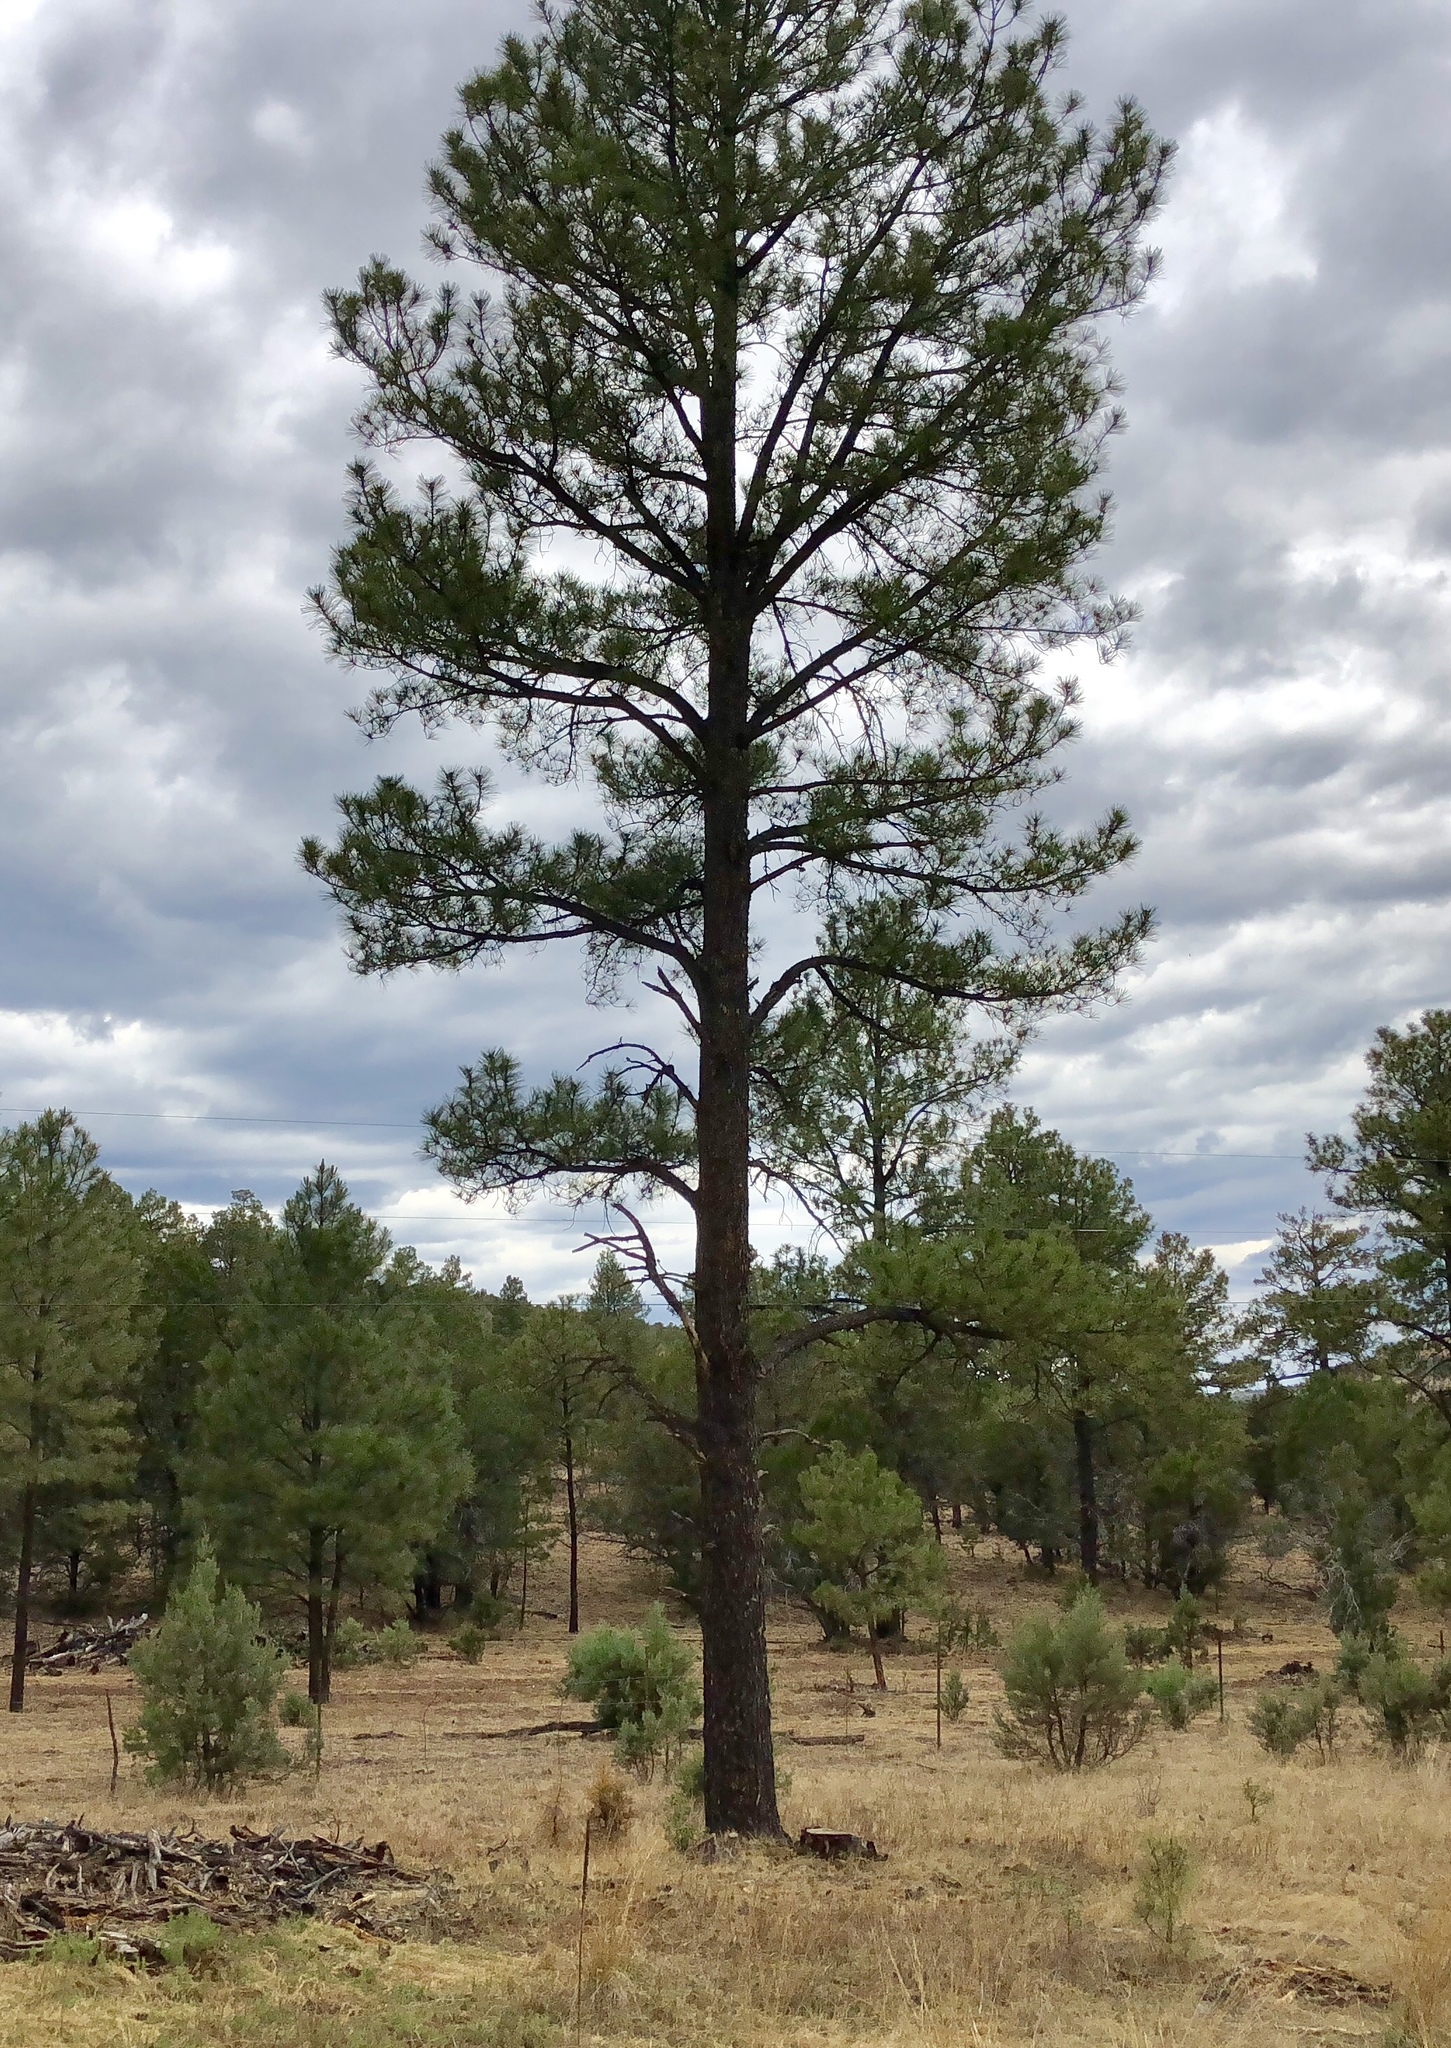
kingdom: Plantae
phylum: Tracheophyta
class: Pinopsida
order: Pinales
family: Pinaceae
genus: Pinus
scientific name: Pinus ponderosa
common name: Western yellow-pine
